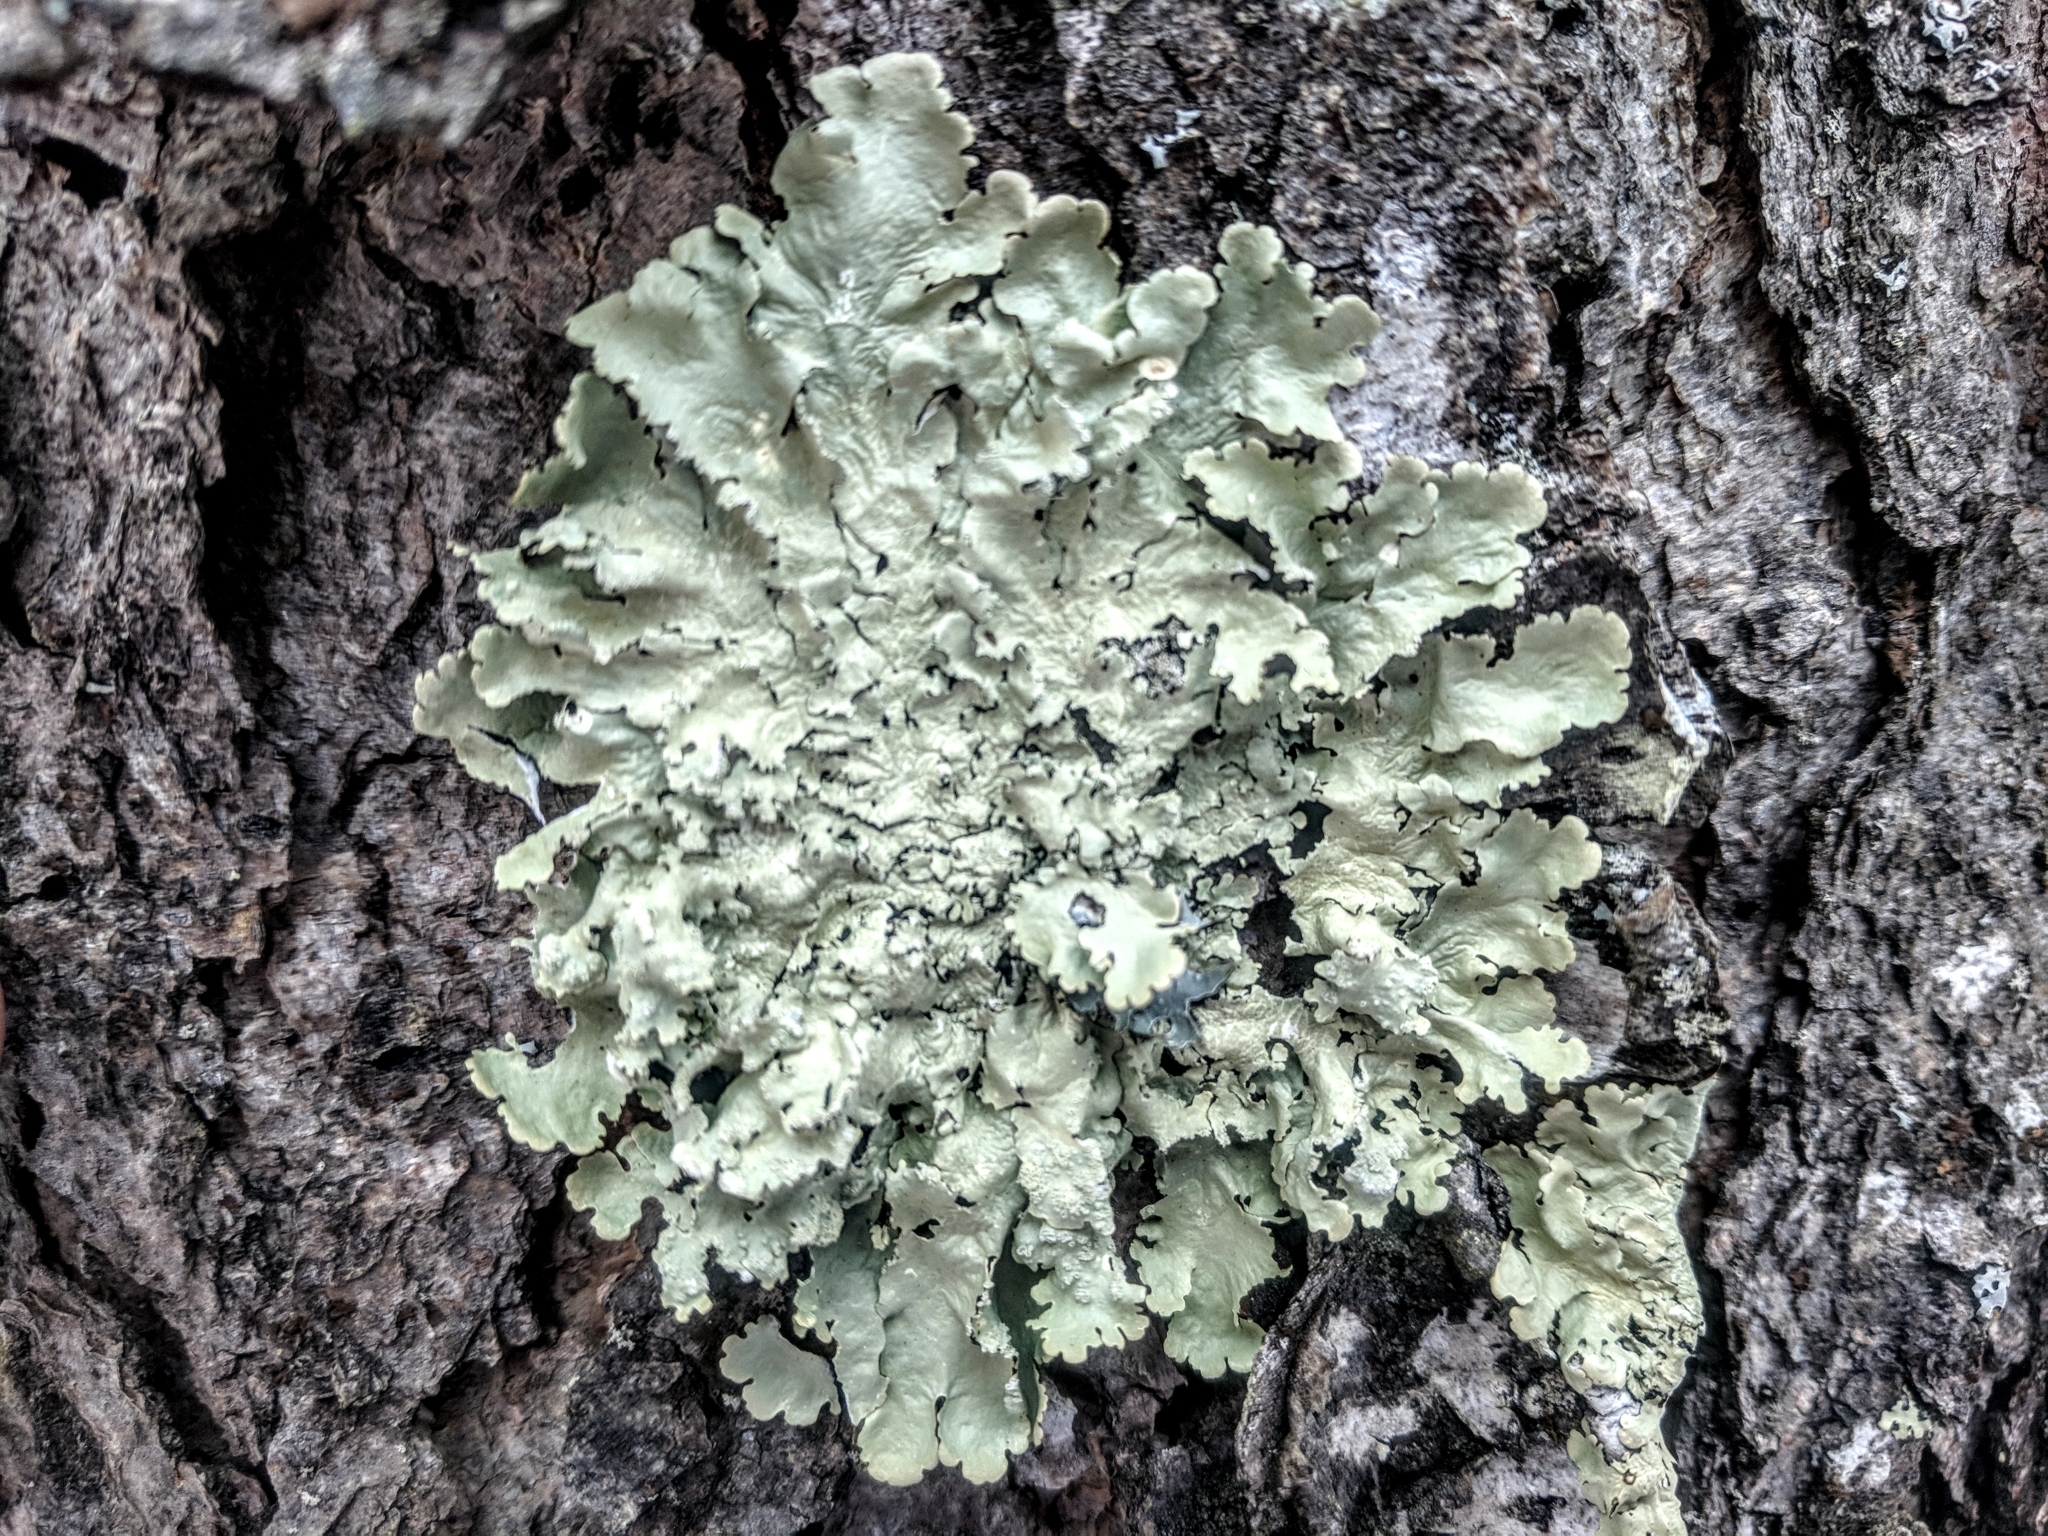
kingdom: Fungi
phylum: Ascomycota
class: Lecanoromycetes
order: Lecanorales
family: Parmeliaceae
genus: Flavoparmelia
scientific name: Flavoparmelia caperata
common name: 40-mile per hour lichen
